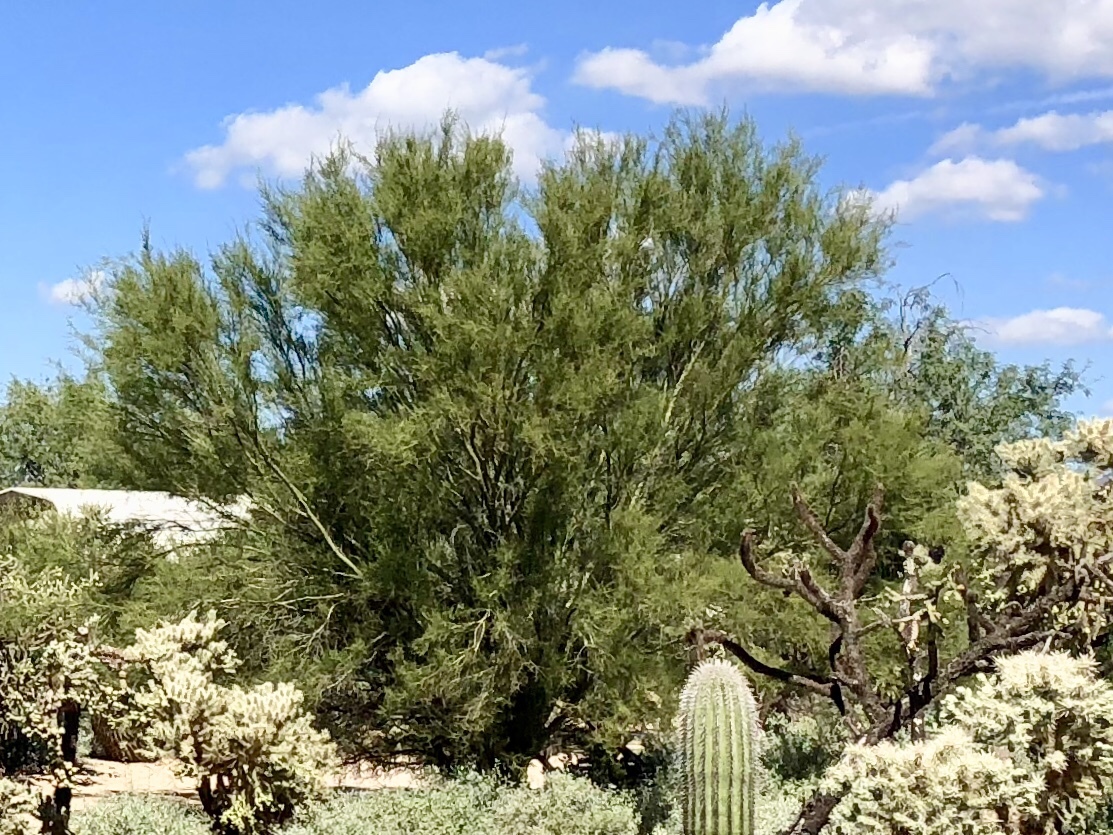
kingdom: Plantae
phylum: Tracheophyta
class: Magnoliopsida
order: Fabales
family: Fabaceae
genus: Parkinsonia
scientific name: Parkinsonia microphylla
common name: Yellow paloverde
